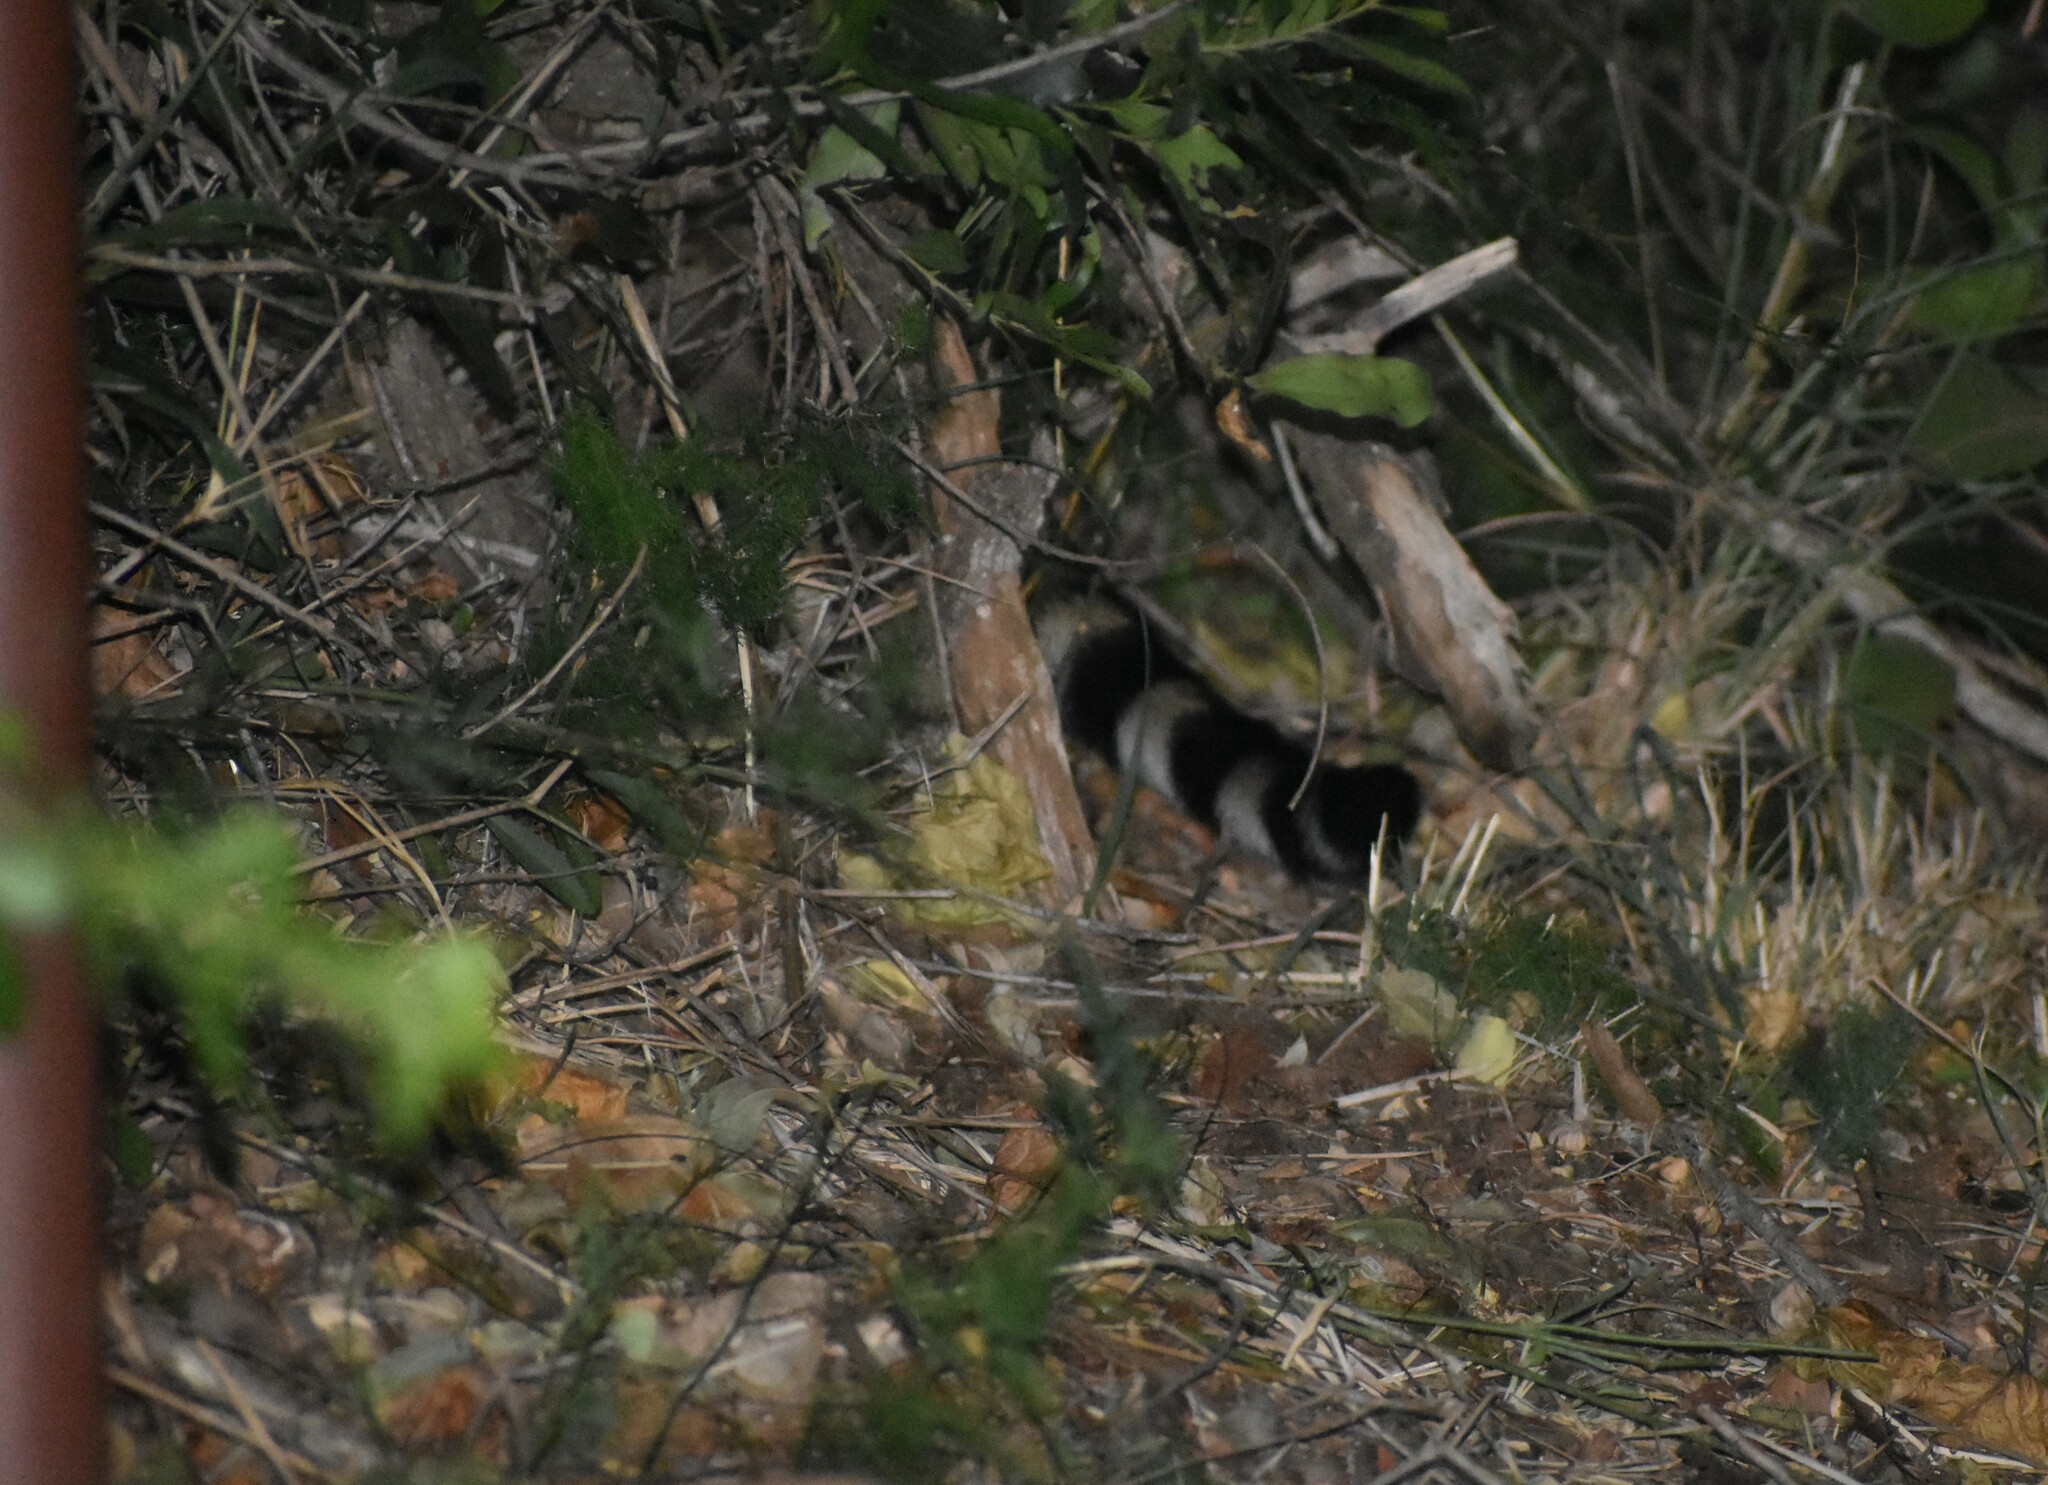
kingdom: Animalia
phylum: Chordata
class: Mammalia
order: Carnivora
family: Viverridae
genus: Genetta
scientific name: Genetta maculata
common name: Rusty-spotted genet
